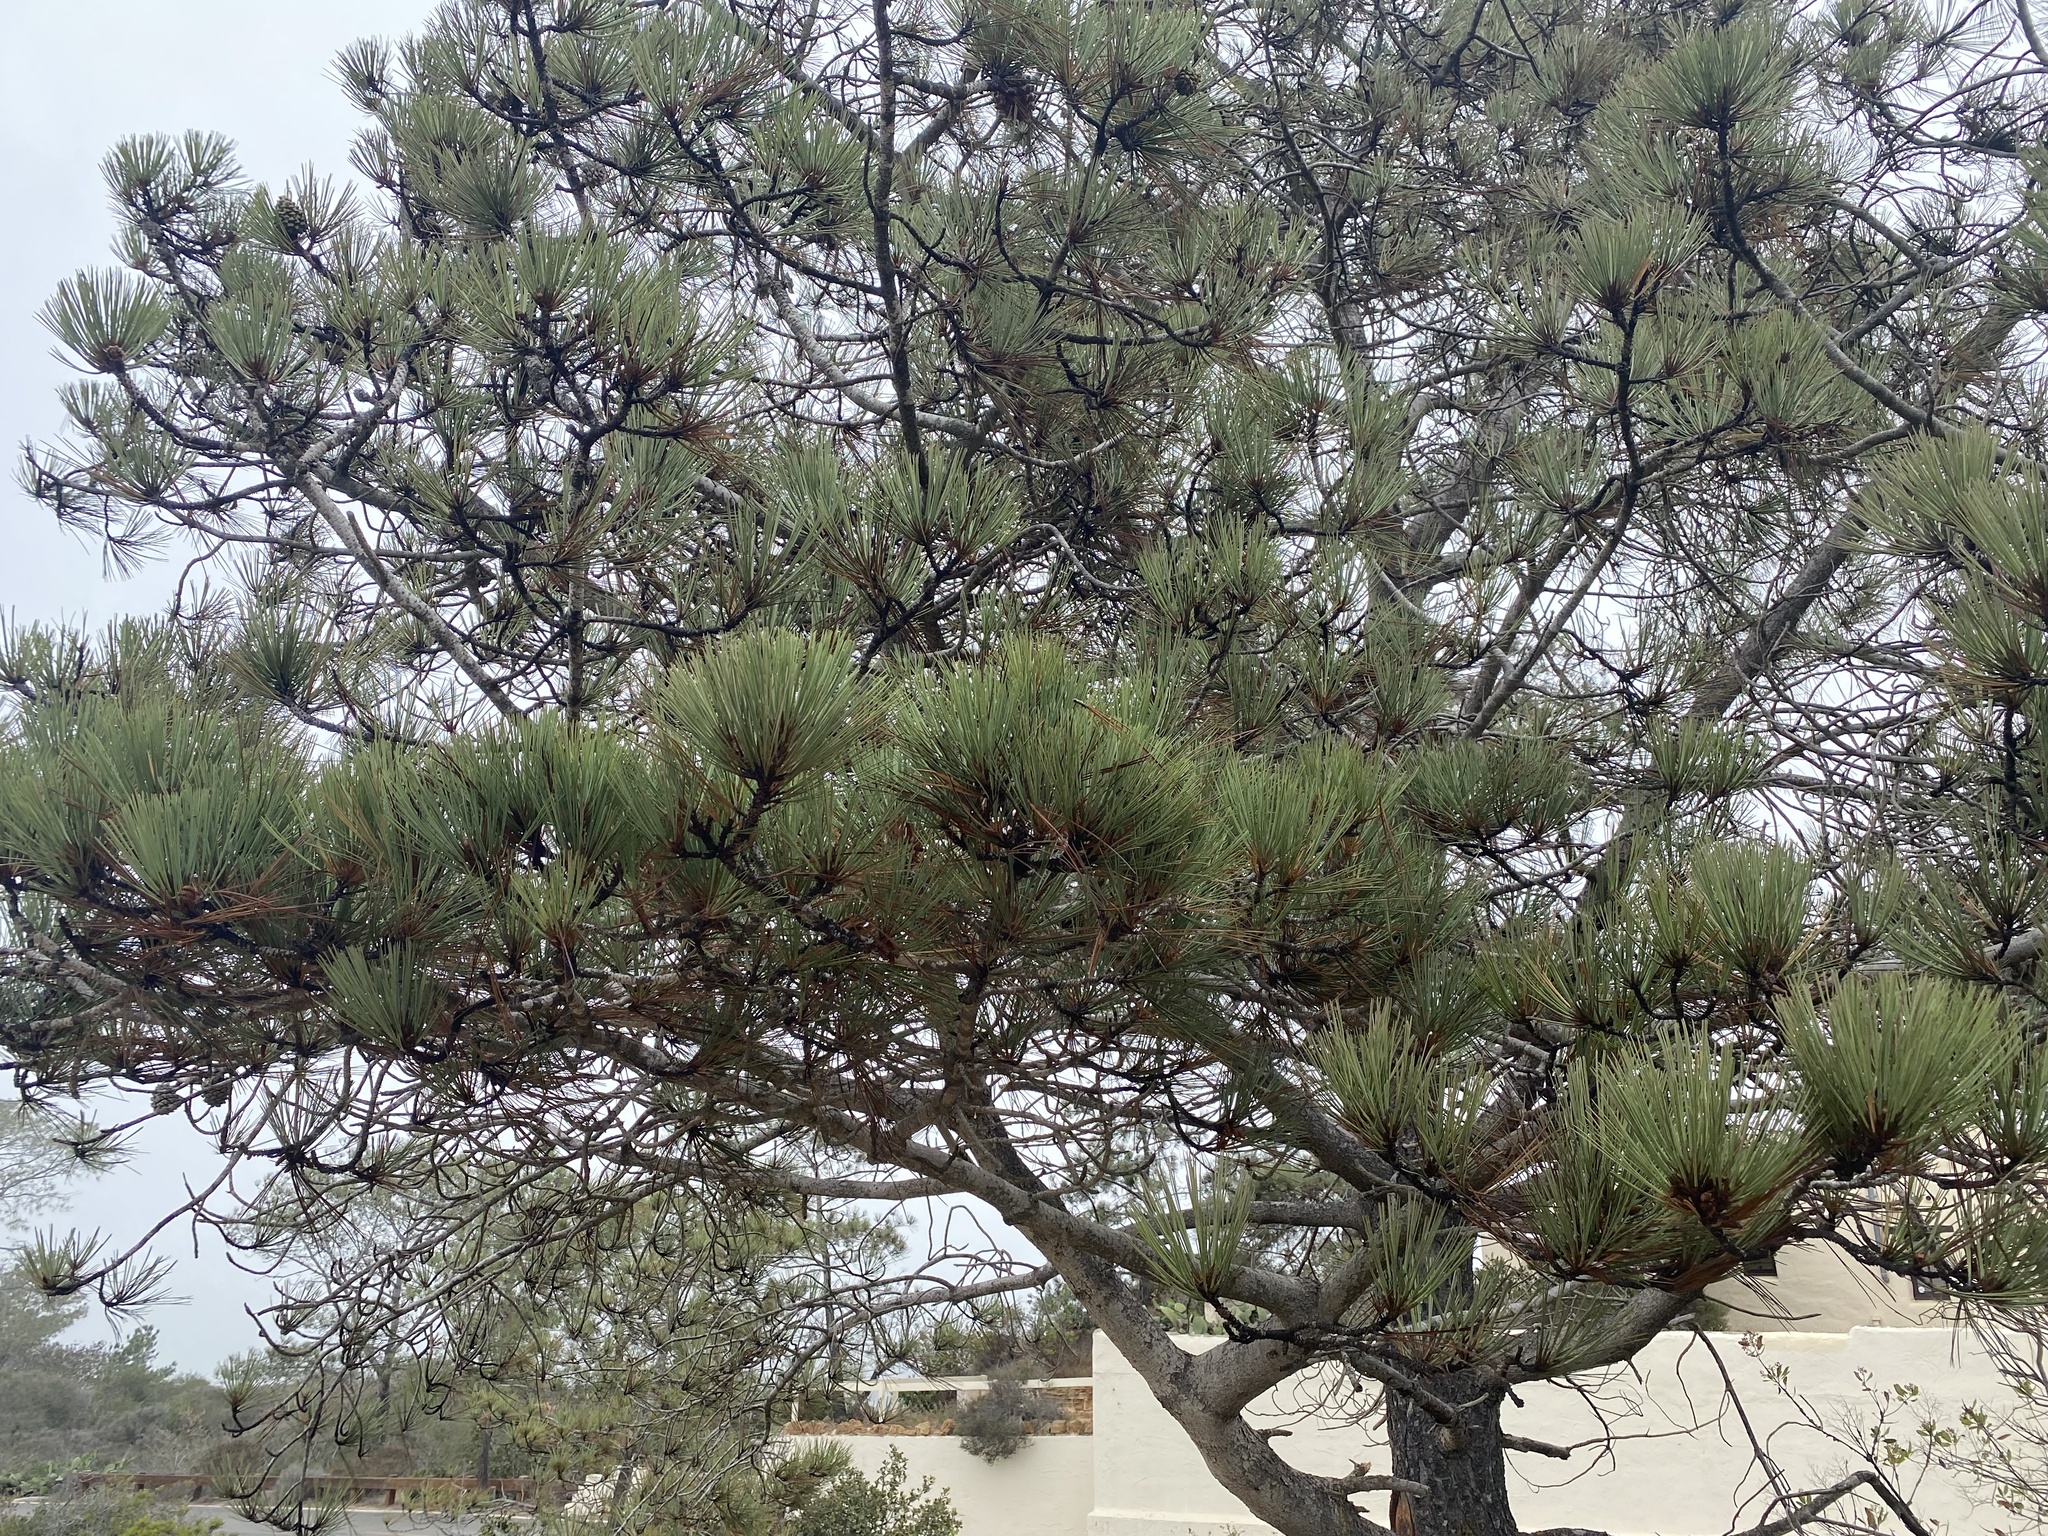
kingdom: Plantae
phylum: Tracheophyta
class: Pinopsida
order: Pinales
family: Pinaceae
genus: Pinus
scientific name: Pinus torreyana
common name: Torrey pine
